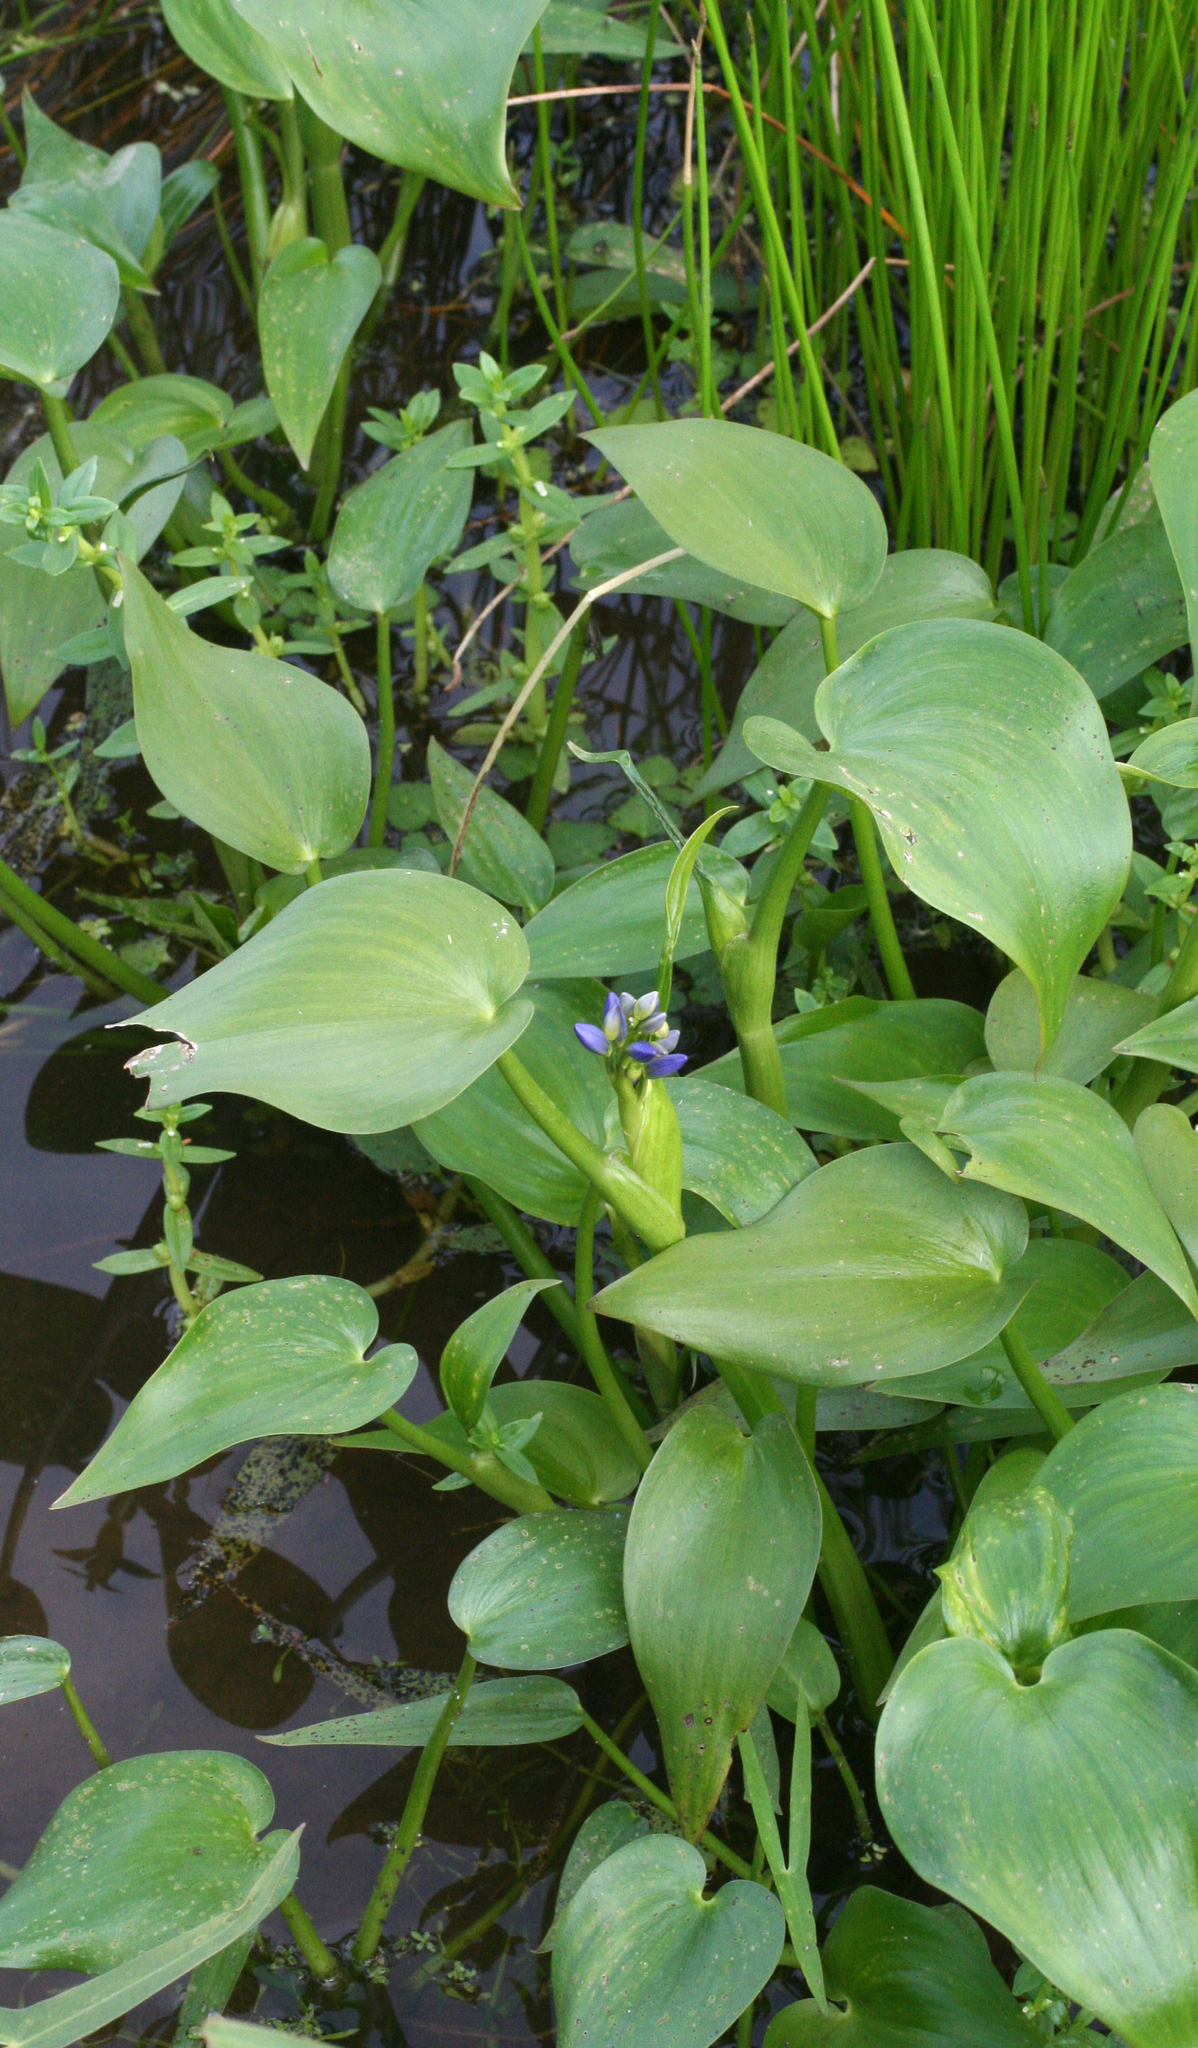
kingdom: Plantae
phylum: Tracheophyta
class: Liliopsida
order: Commelinales
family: Pontederiaceae
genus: Pontederia
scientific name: Pontederia korsakowii
